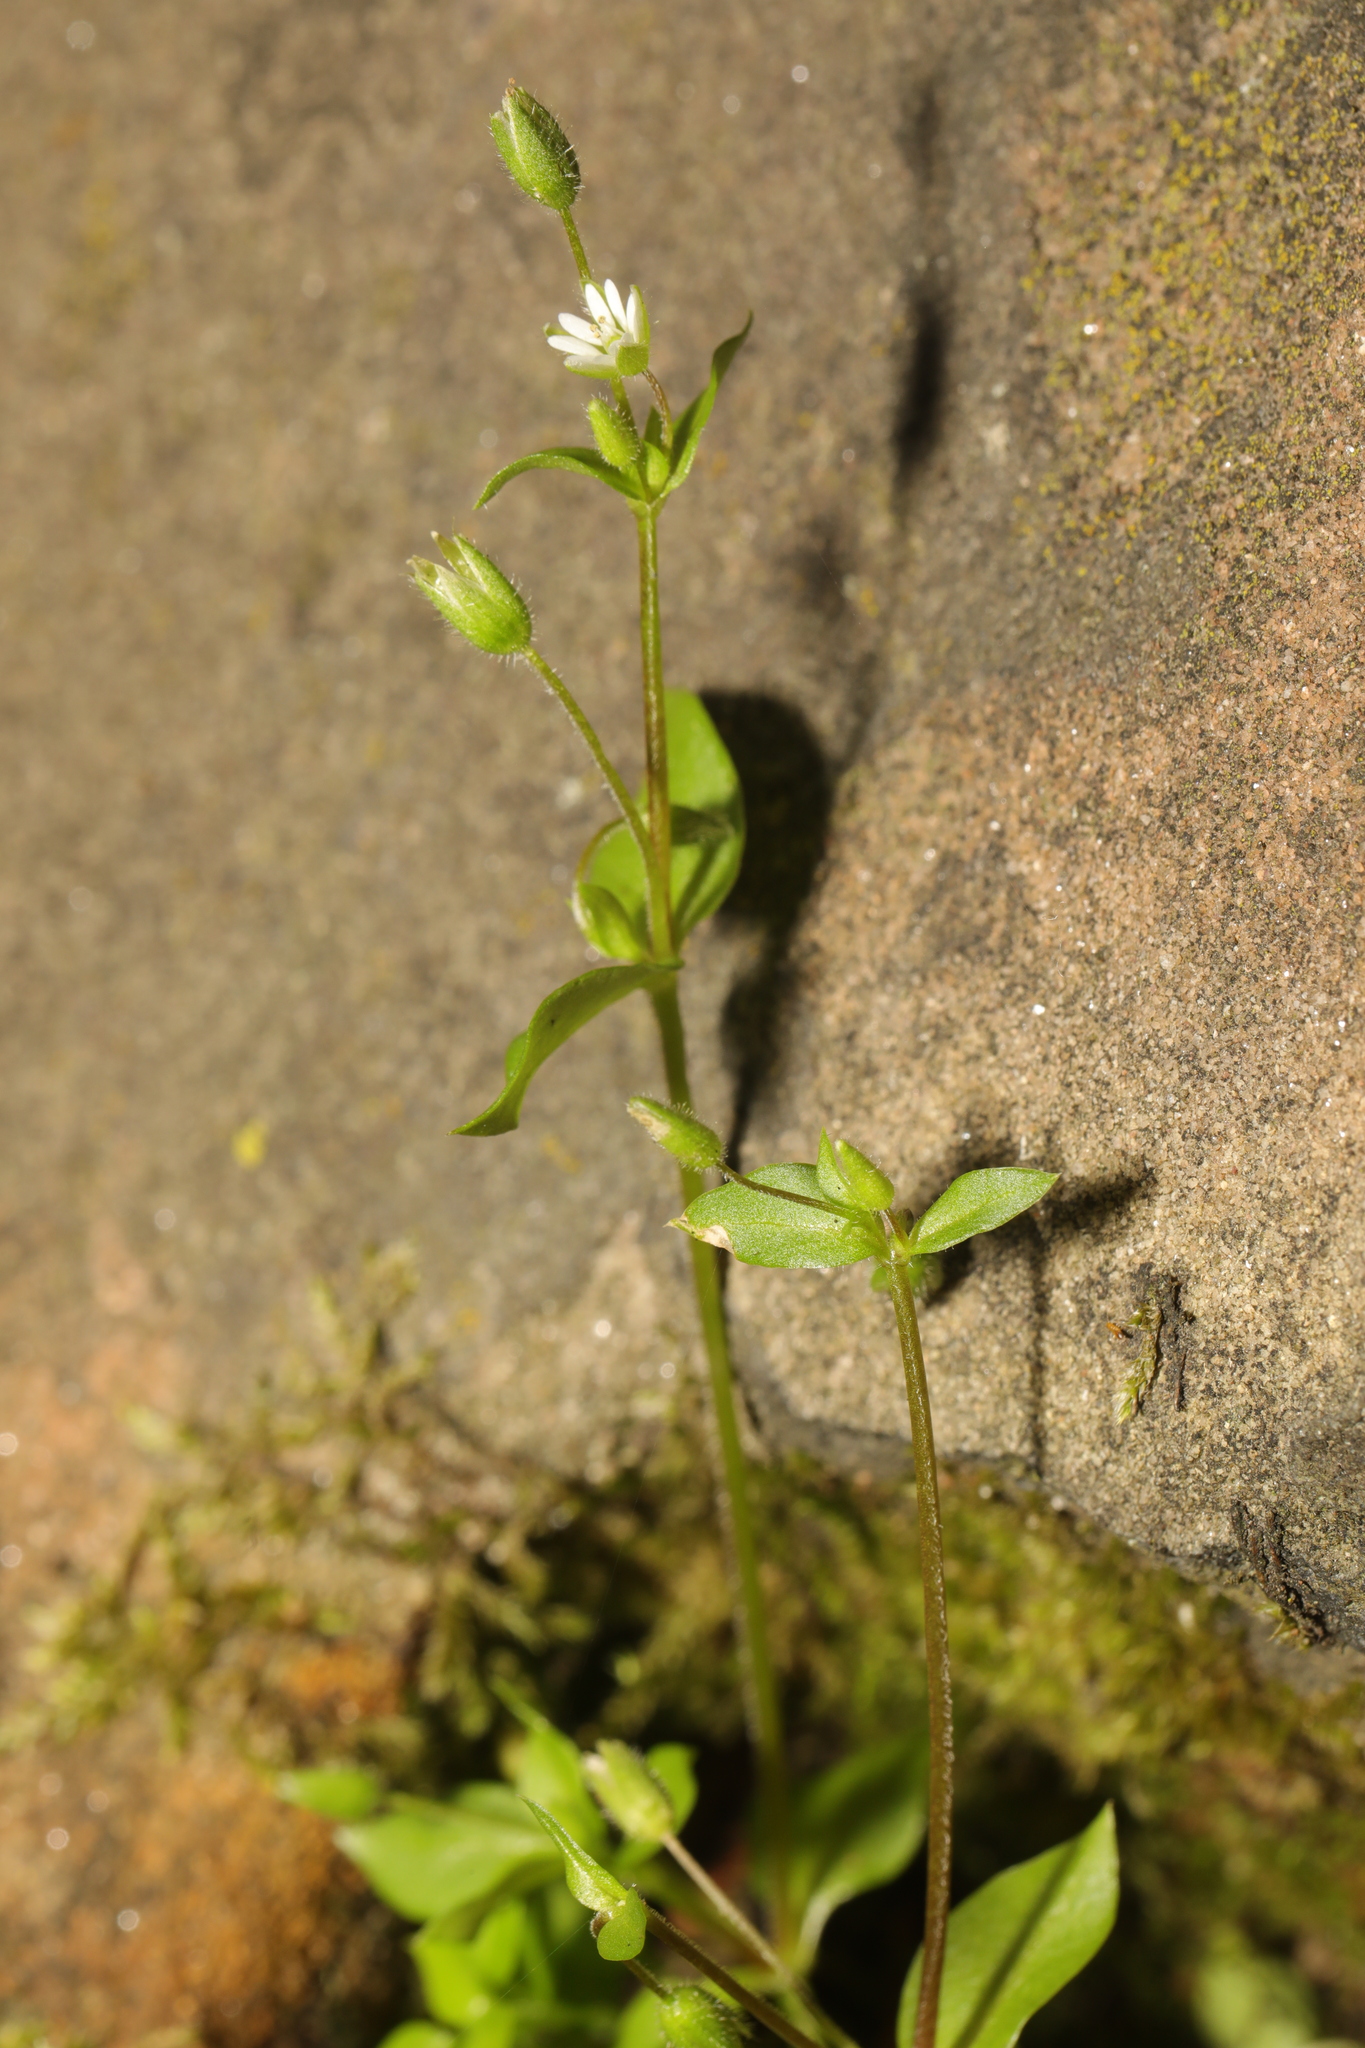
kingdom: Plantae
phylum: Tracheophyta
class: Magnoliopsida
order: Caryophyllales
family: Caryophyllaceae
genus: Stellaria
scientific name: Stellaria media
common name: Common chickweed
